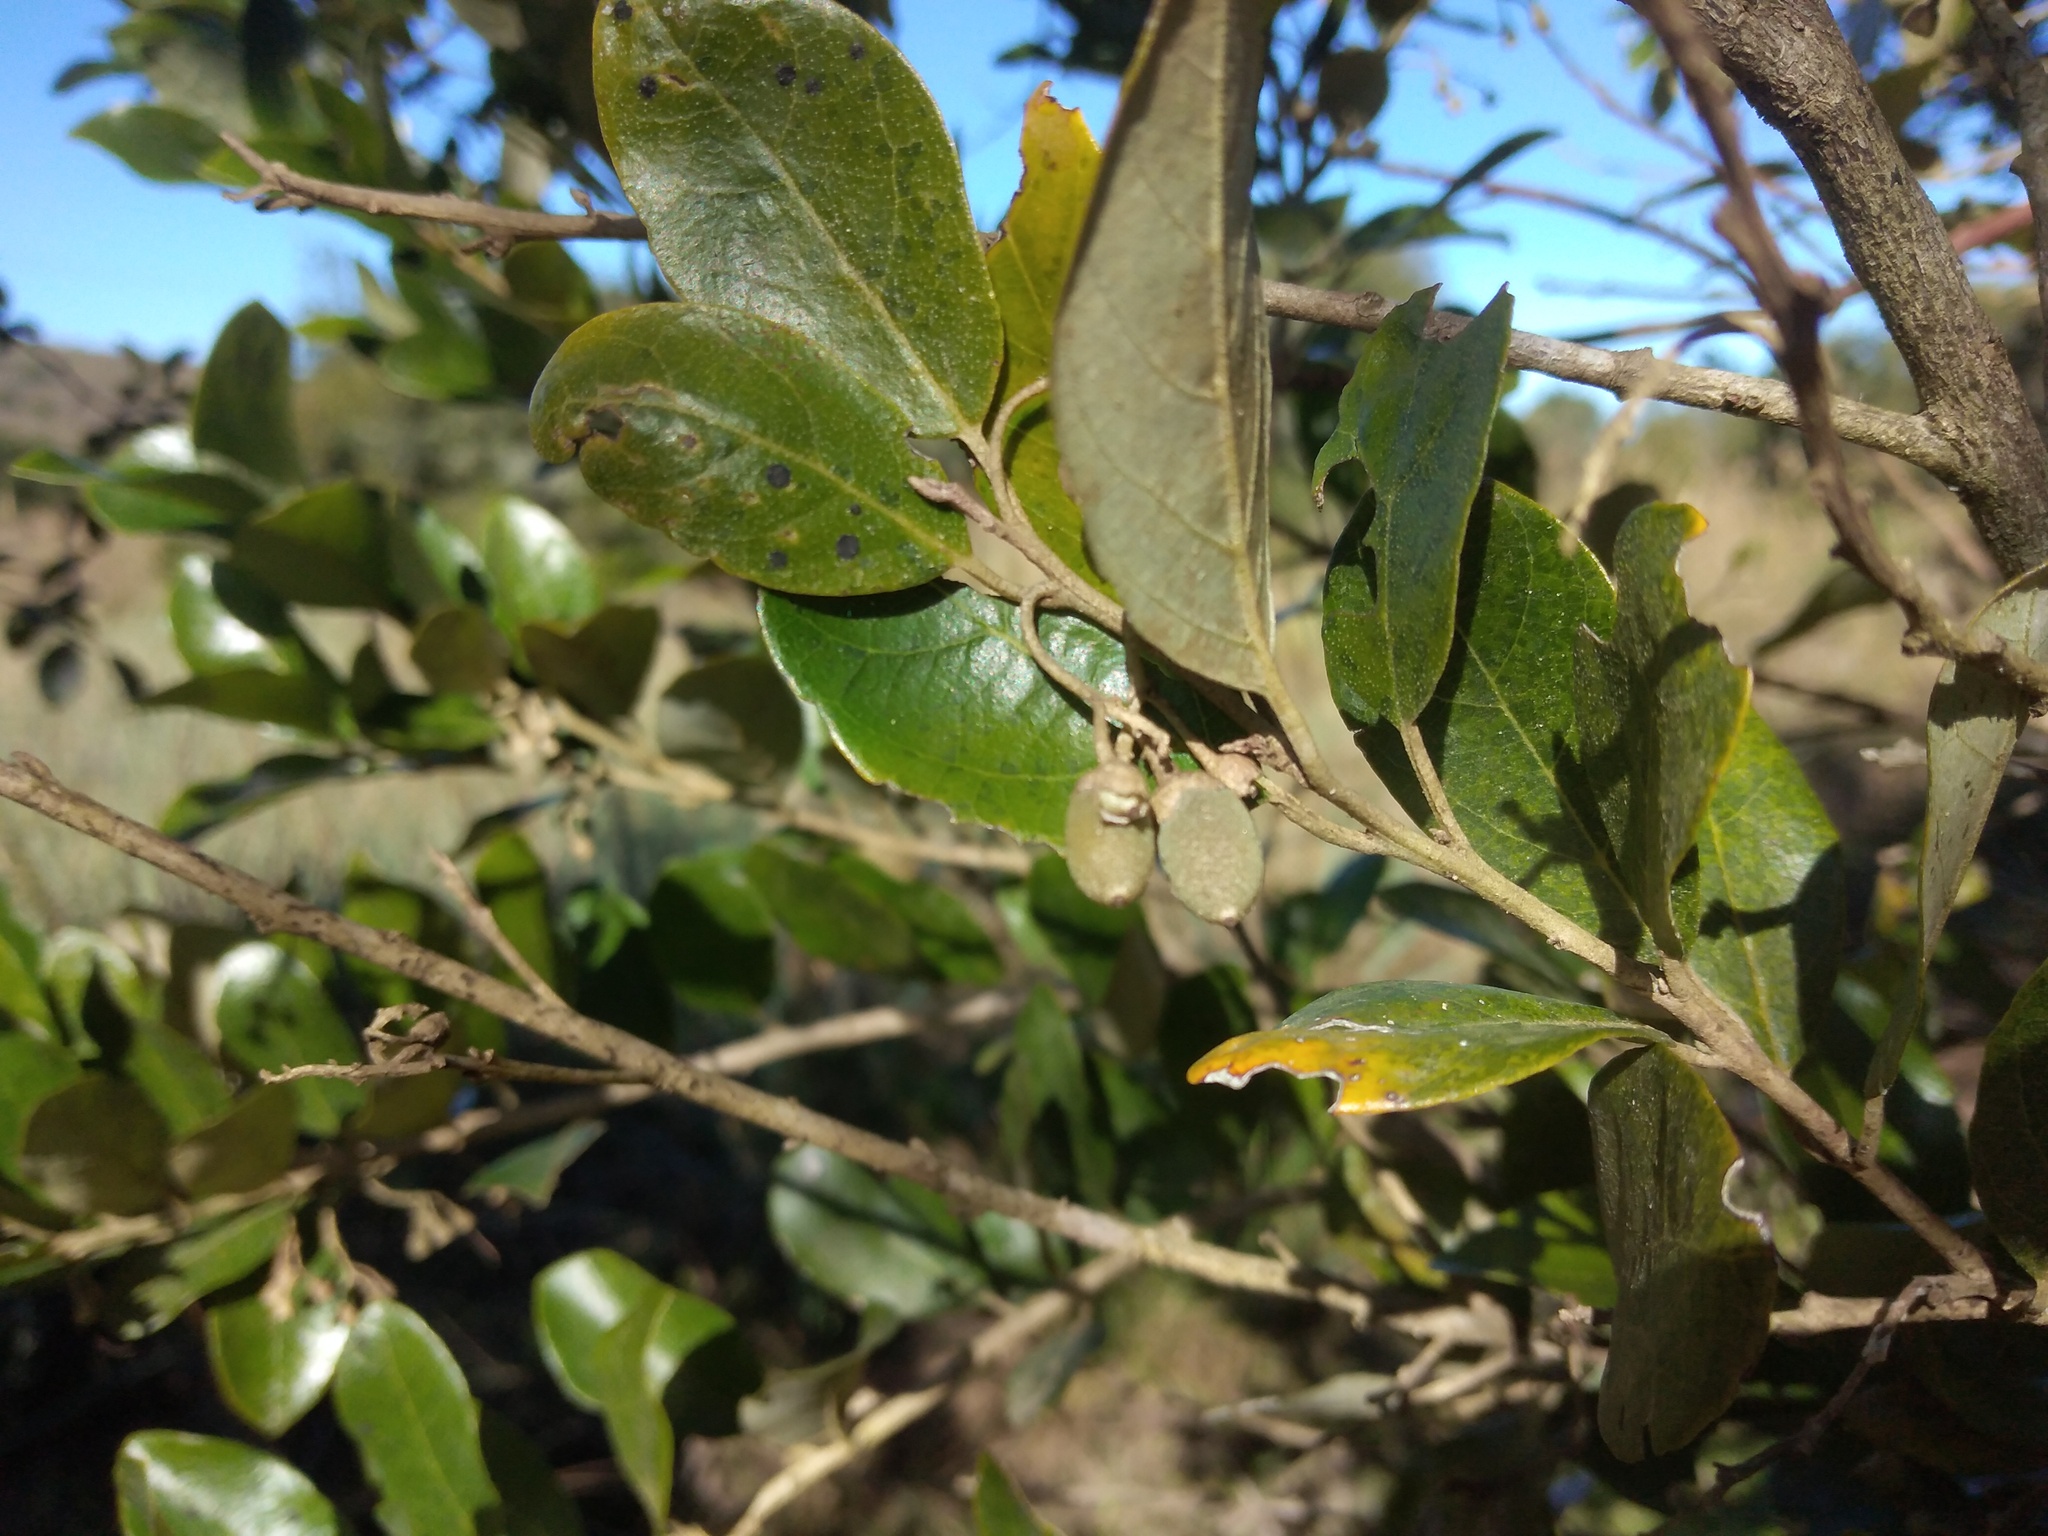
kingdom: Plantae
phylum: Tracheophyta
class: Magnoliopsida
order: Ericales
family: Styracaceae
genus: Styrax
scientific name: Styrax leprosus
